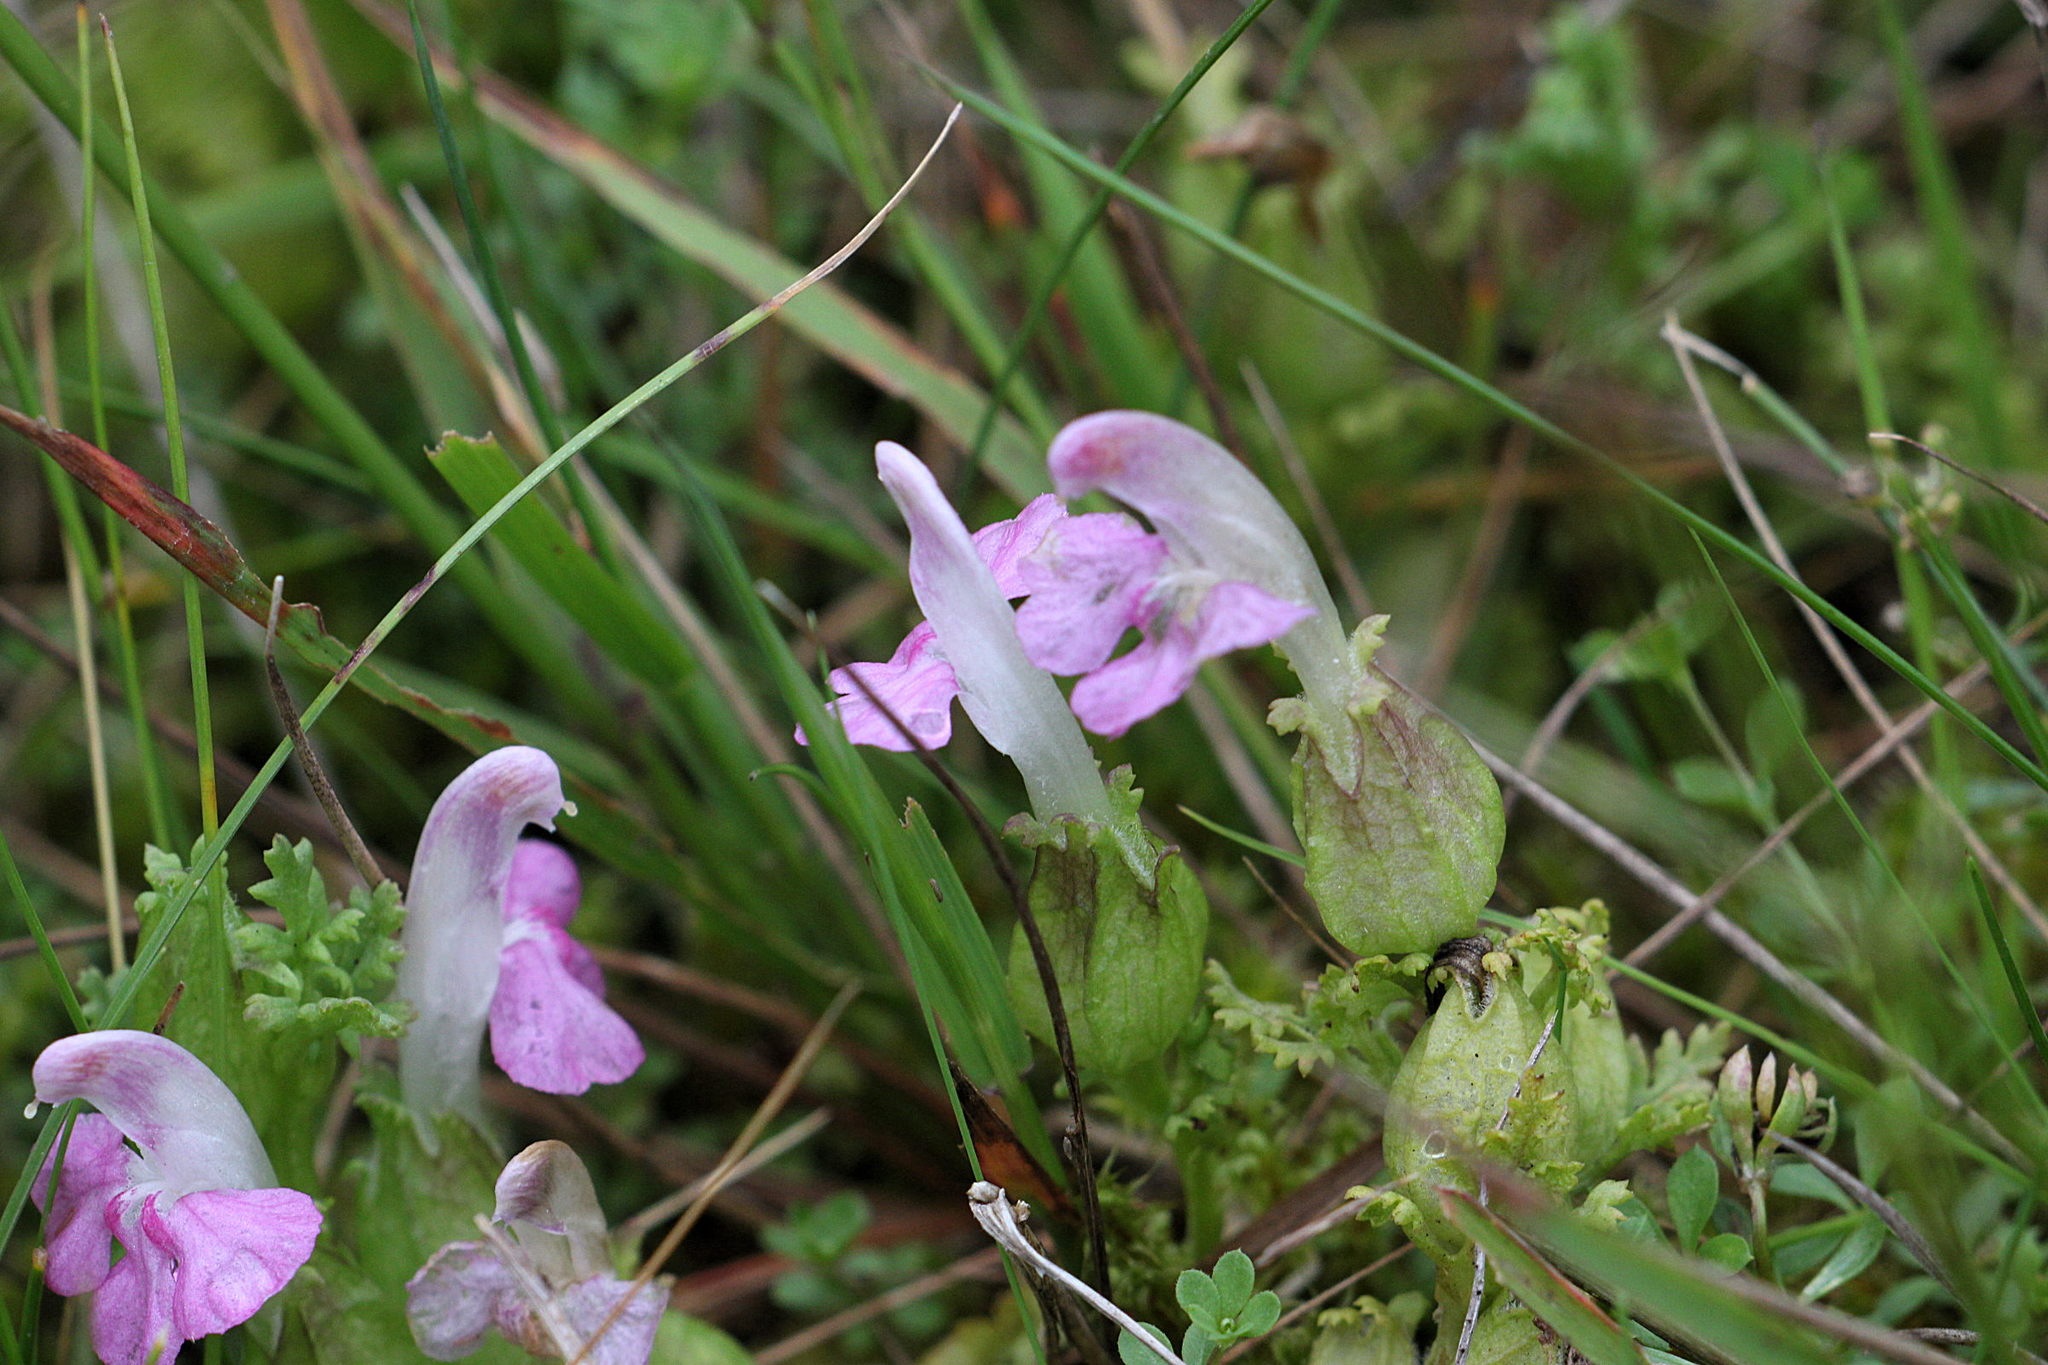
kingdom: Plantae
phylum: Tracheophyta
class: Magnoliopsida
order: Lamiales
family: Orobanchaceae
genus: Pedicularis
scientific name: Pedicularis sylvatica
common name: Lousewort
